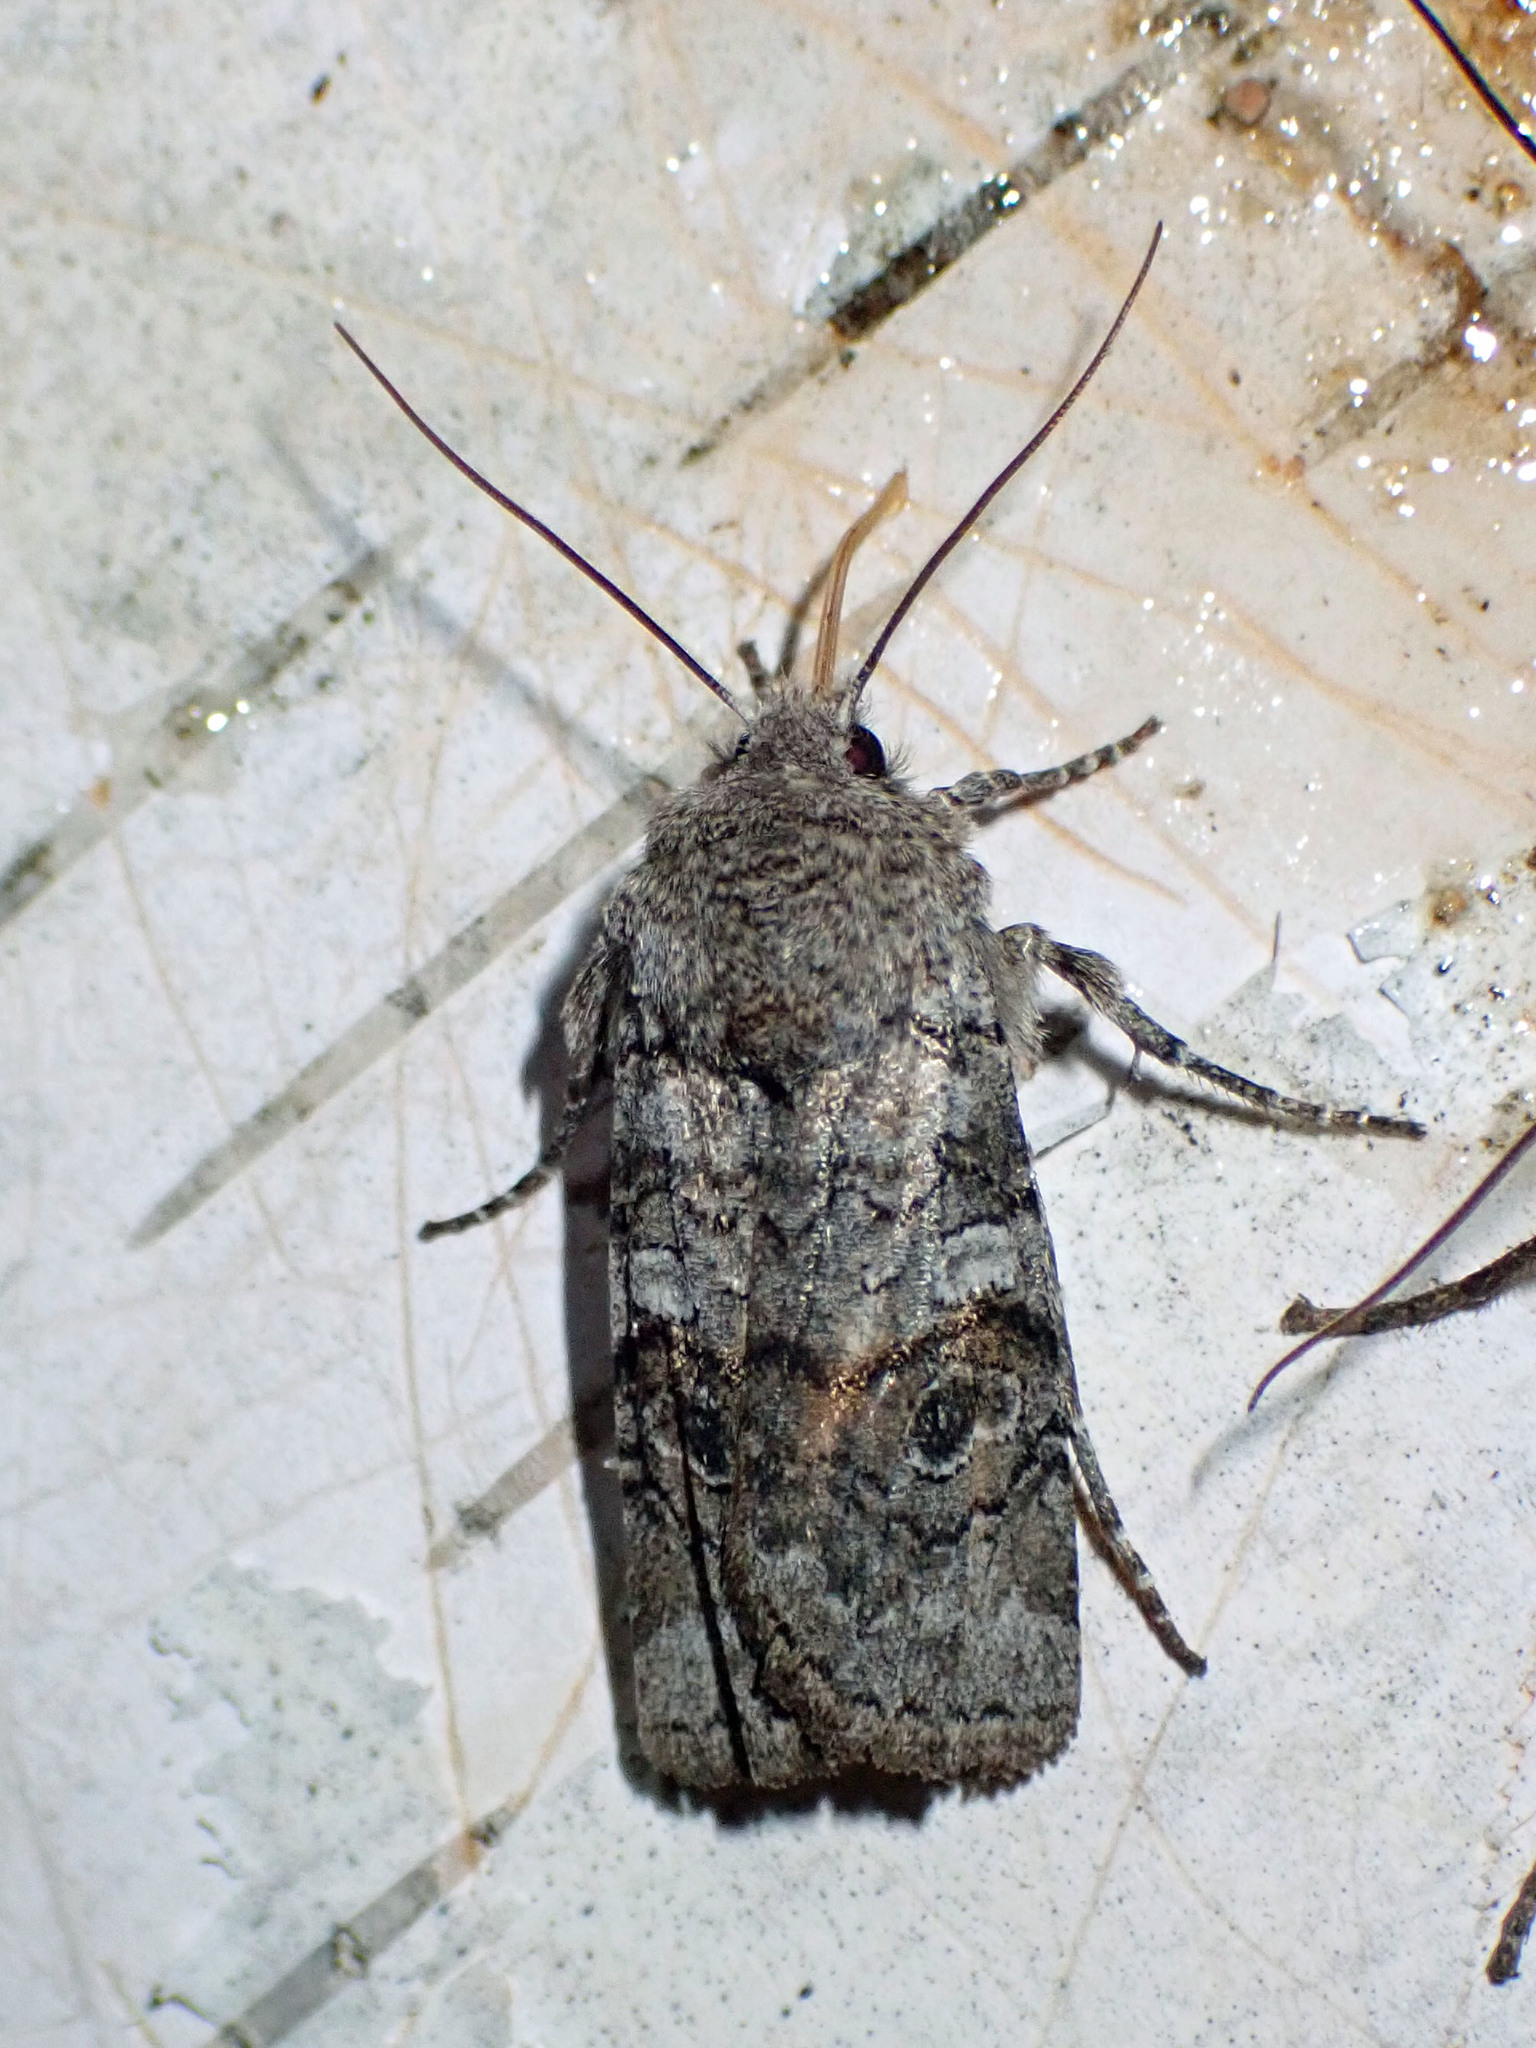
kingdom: Animalia
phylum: Arthropoda
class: Insecta
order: Lepidoptera
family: Noctuidae
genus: Litholomia
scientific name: Litholomia napaea
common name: False pinion moth
